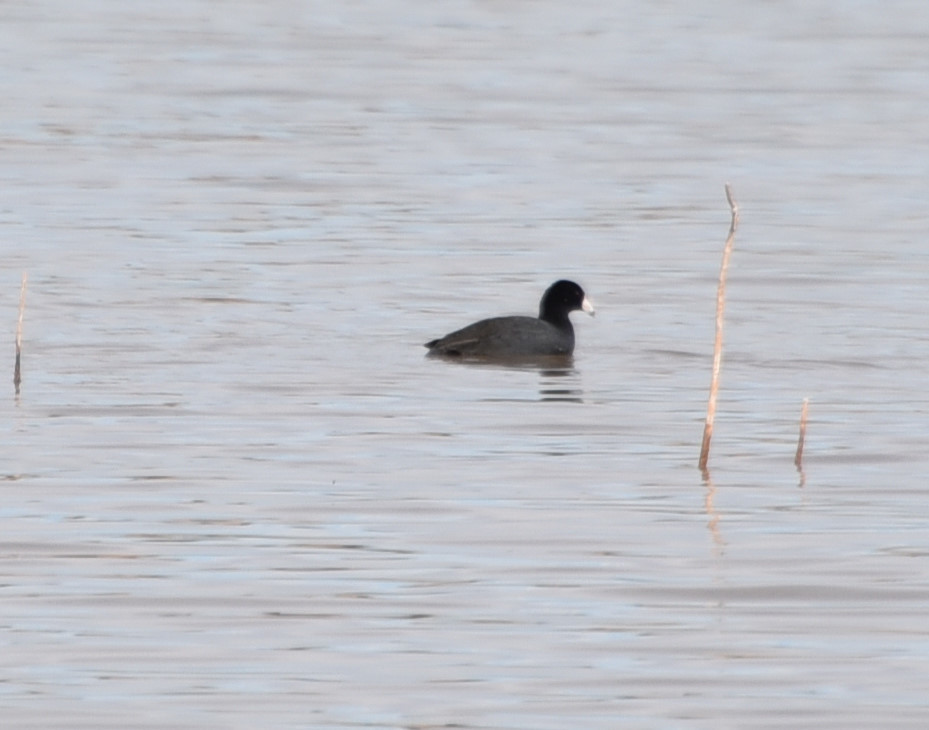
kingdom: Animalia
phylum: Chordata
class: Aves
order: Gruiformes
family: Rallidae
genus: Fulica
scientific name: Fulica americana
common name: American coot
